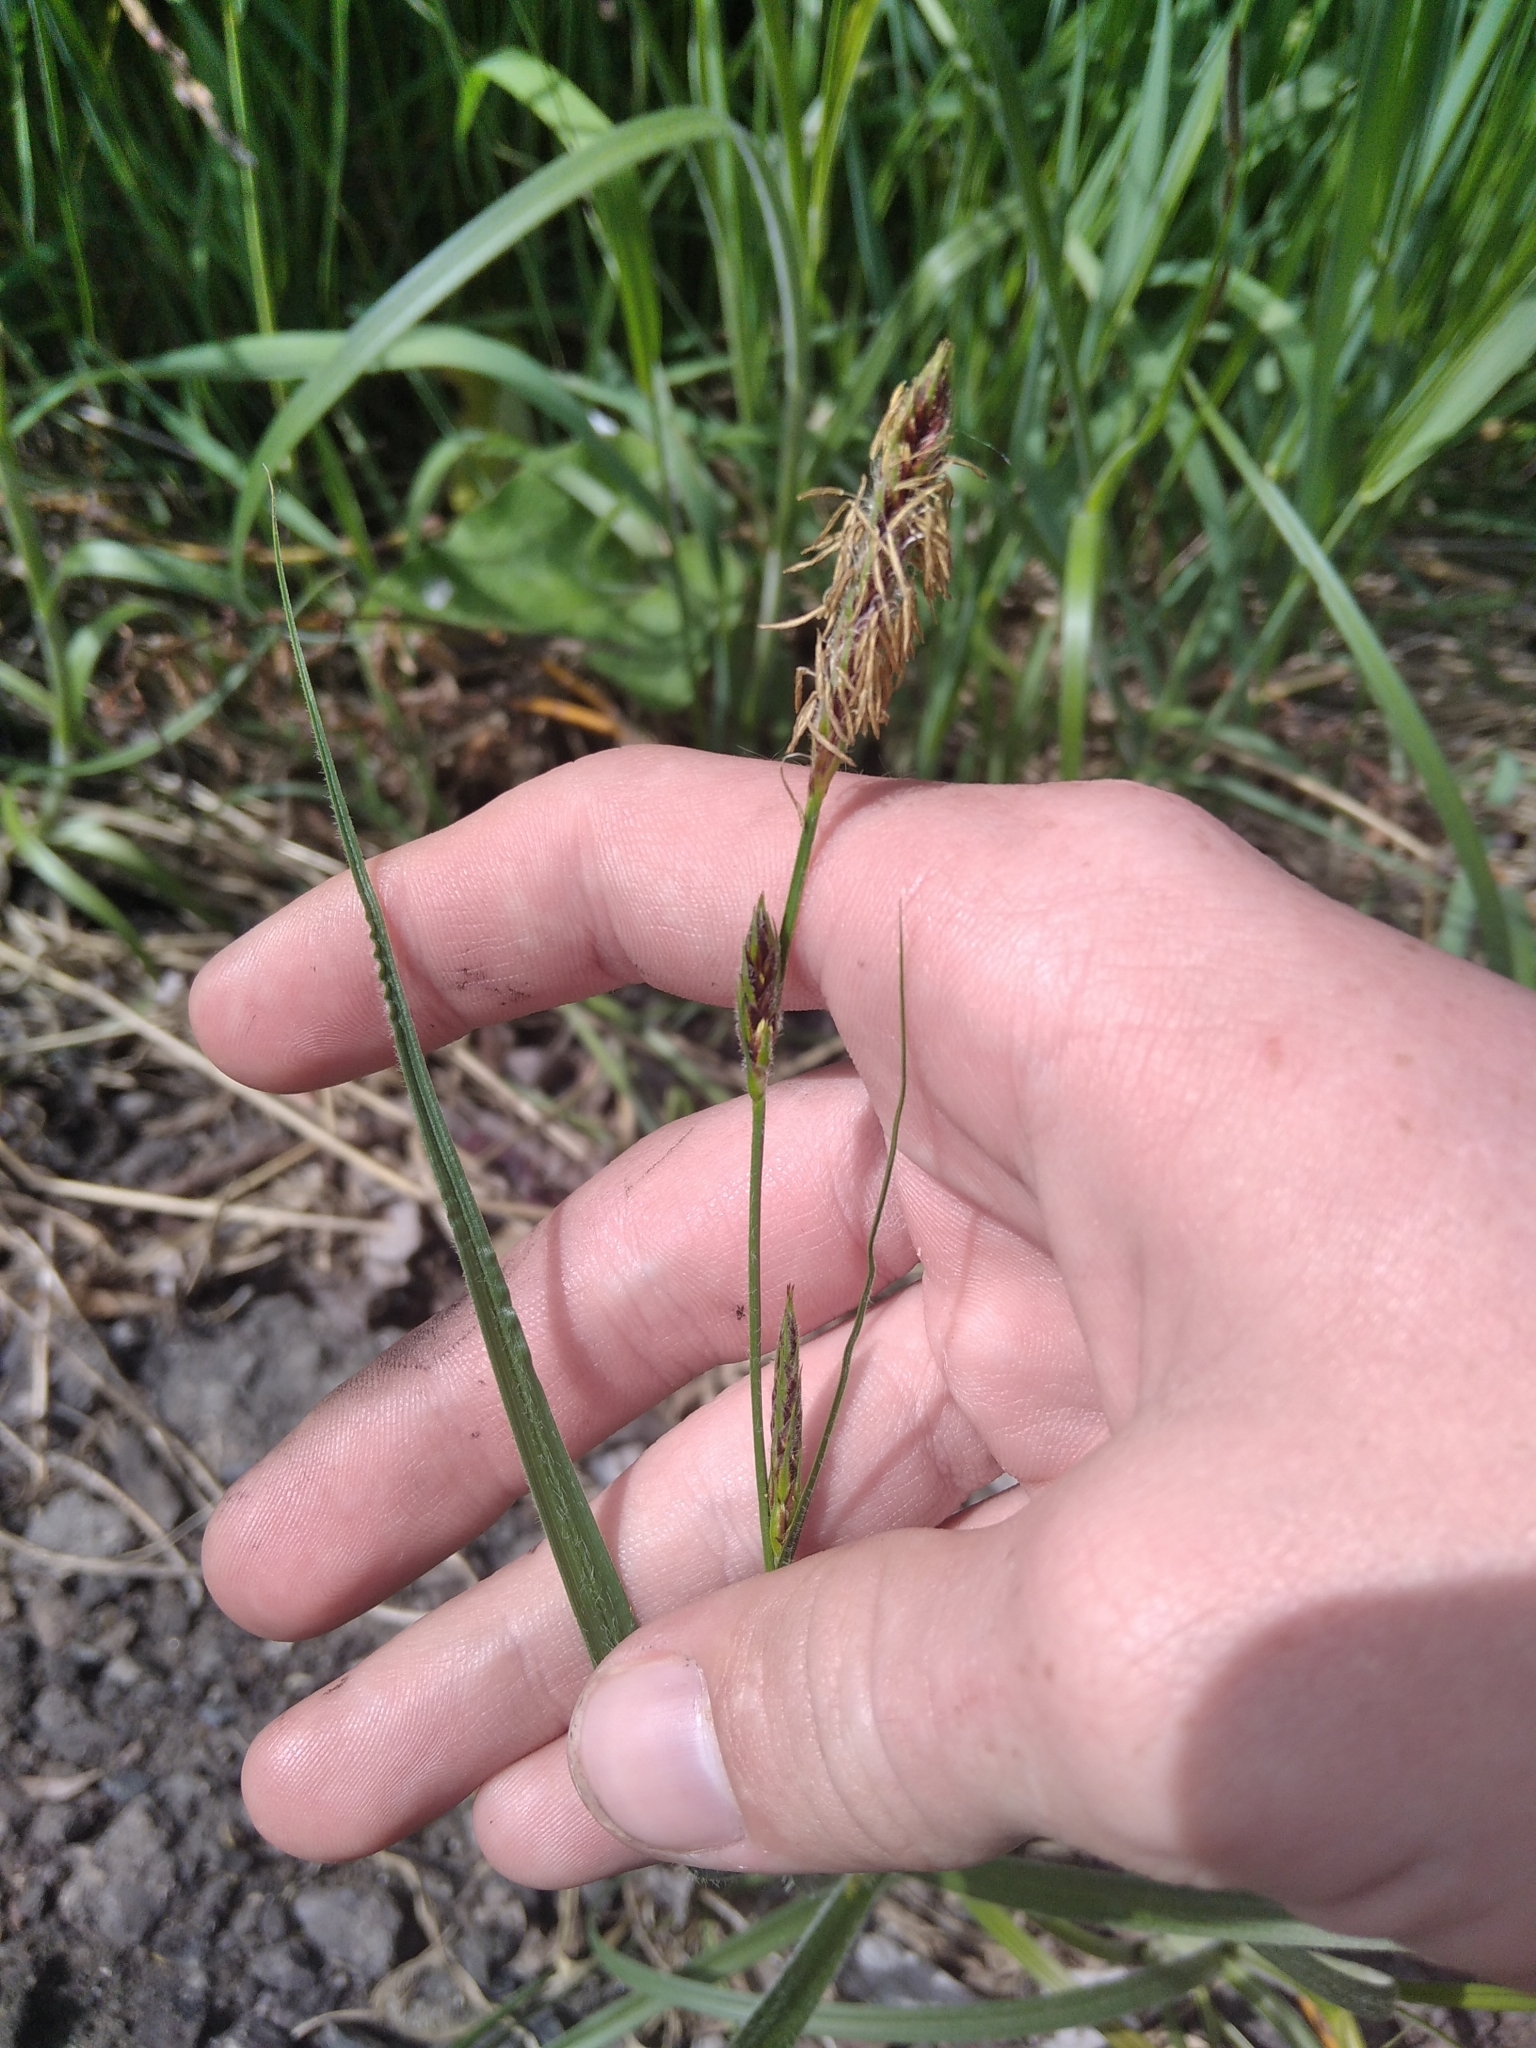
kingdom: Plantae
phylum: Tracheophyta
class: Liliopsida
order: Poales
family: Cyperaceae
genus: Carex
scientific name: Carex hirta
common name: Hairy sedge
